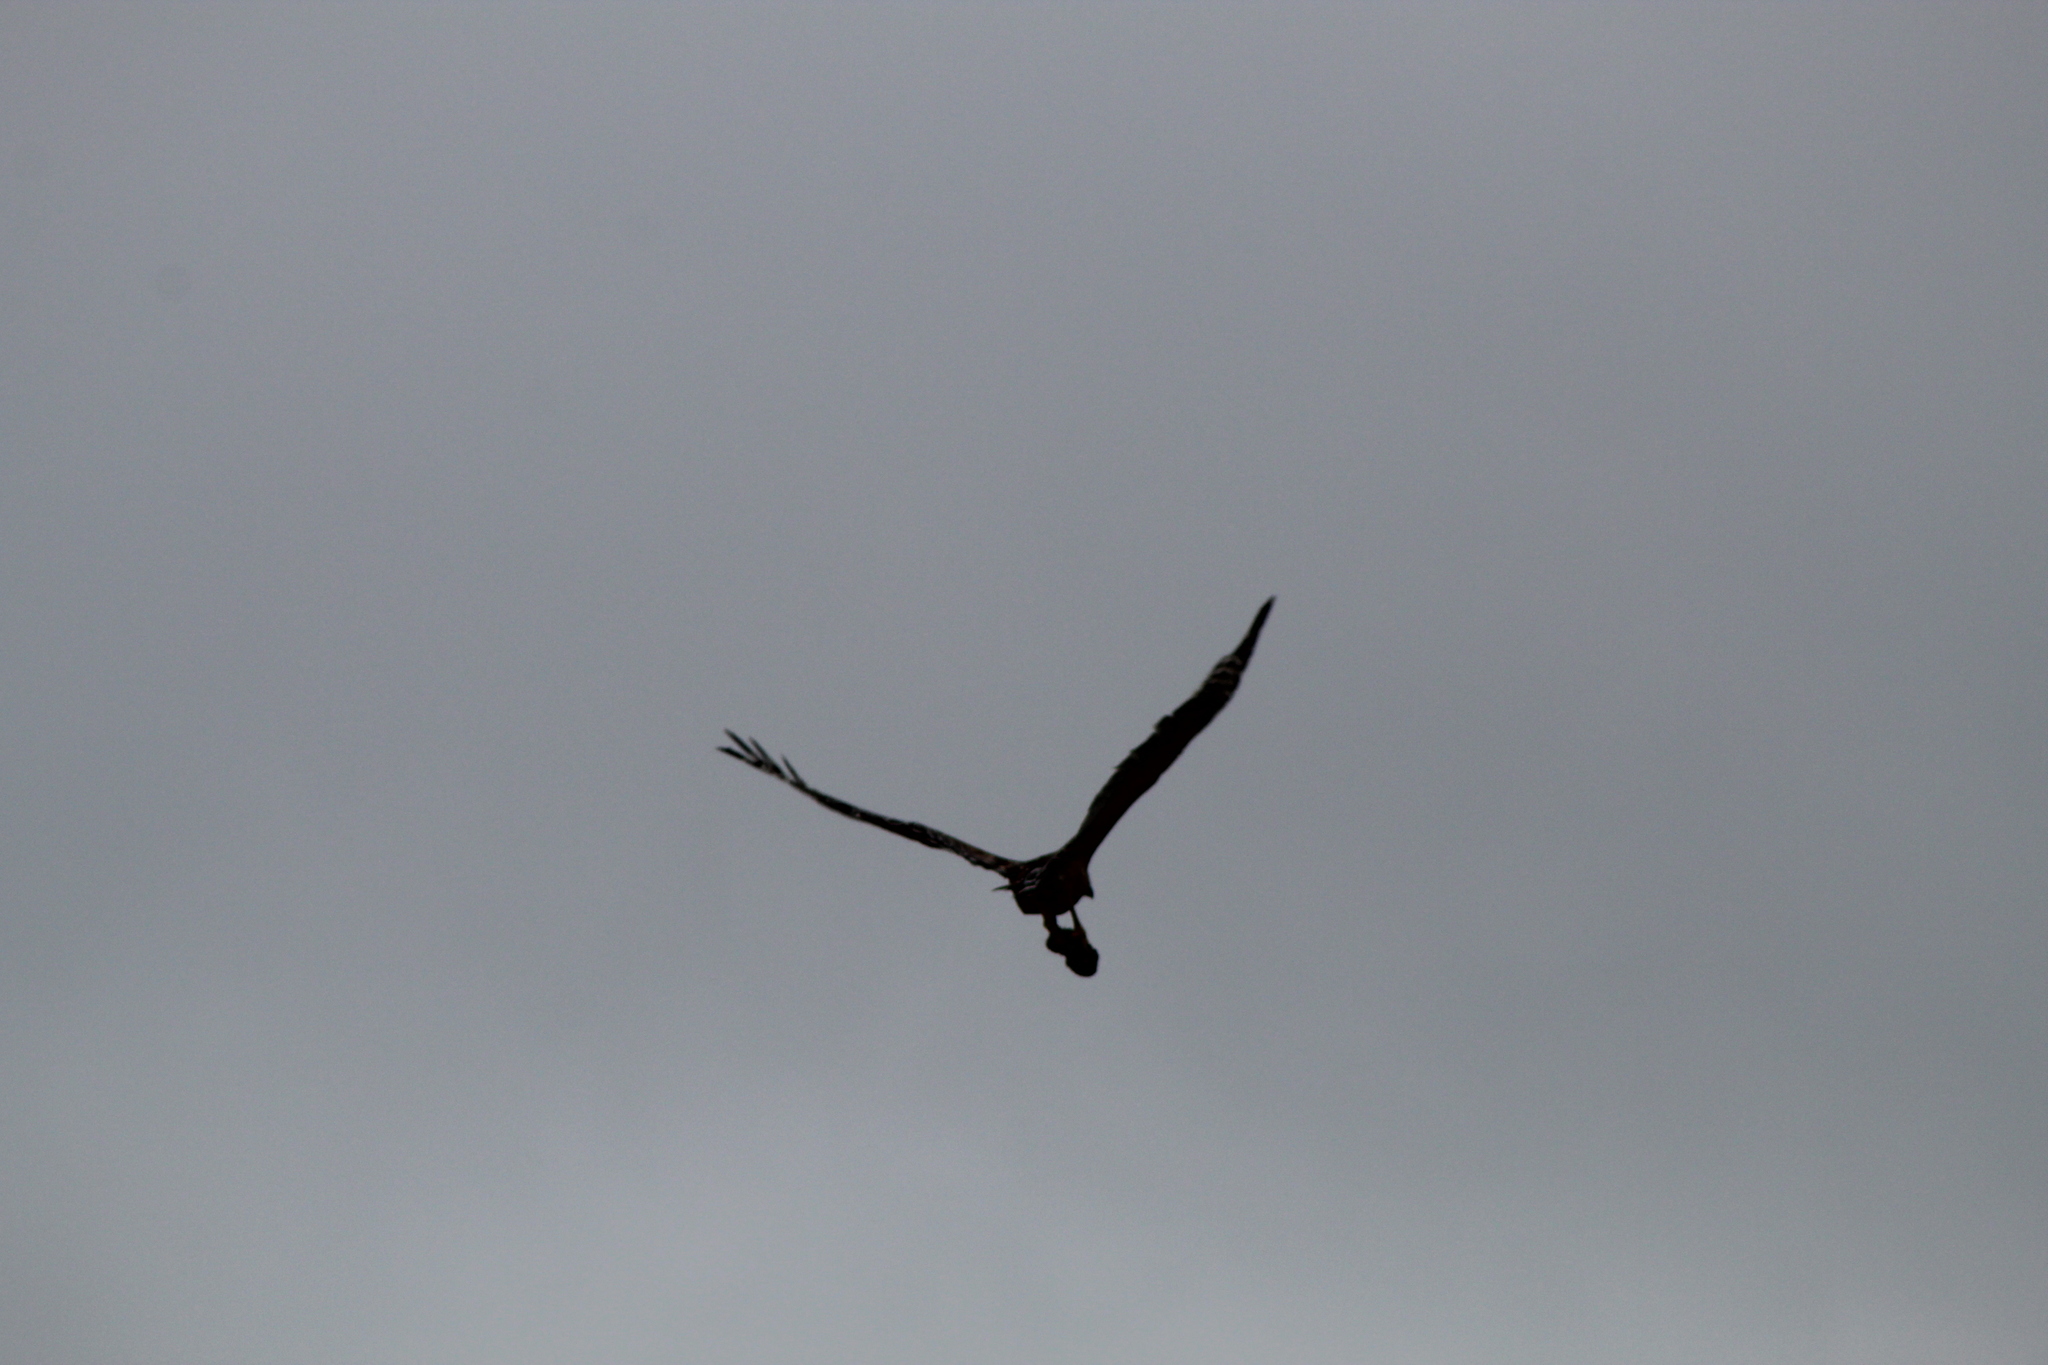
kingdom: Animalia
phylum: Chordata
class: Aves
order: Accipitriformes
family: Accipitridae
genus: Buteo
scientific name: Buteo lineatus
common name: Red-shouldered hawk
